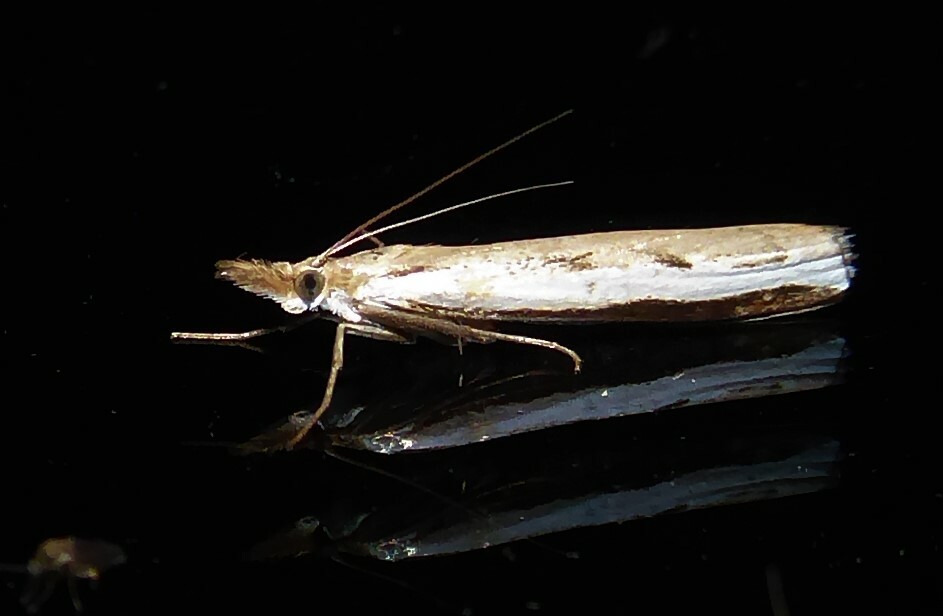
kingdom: Animalia
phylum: Arthropoda
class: Insecta
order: Lepidoptera
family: Crambidae
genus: Orocrambus
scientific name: Orocrambus flexuosellus
